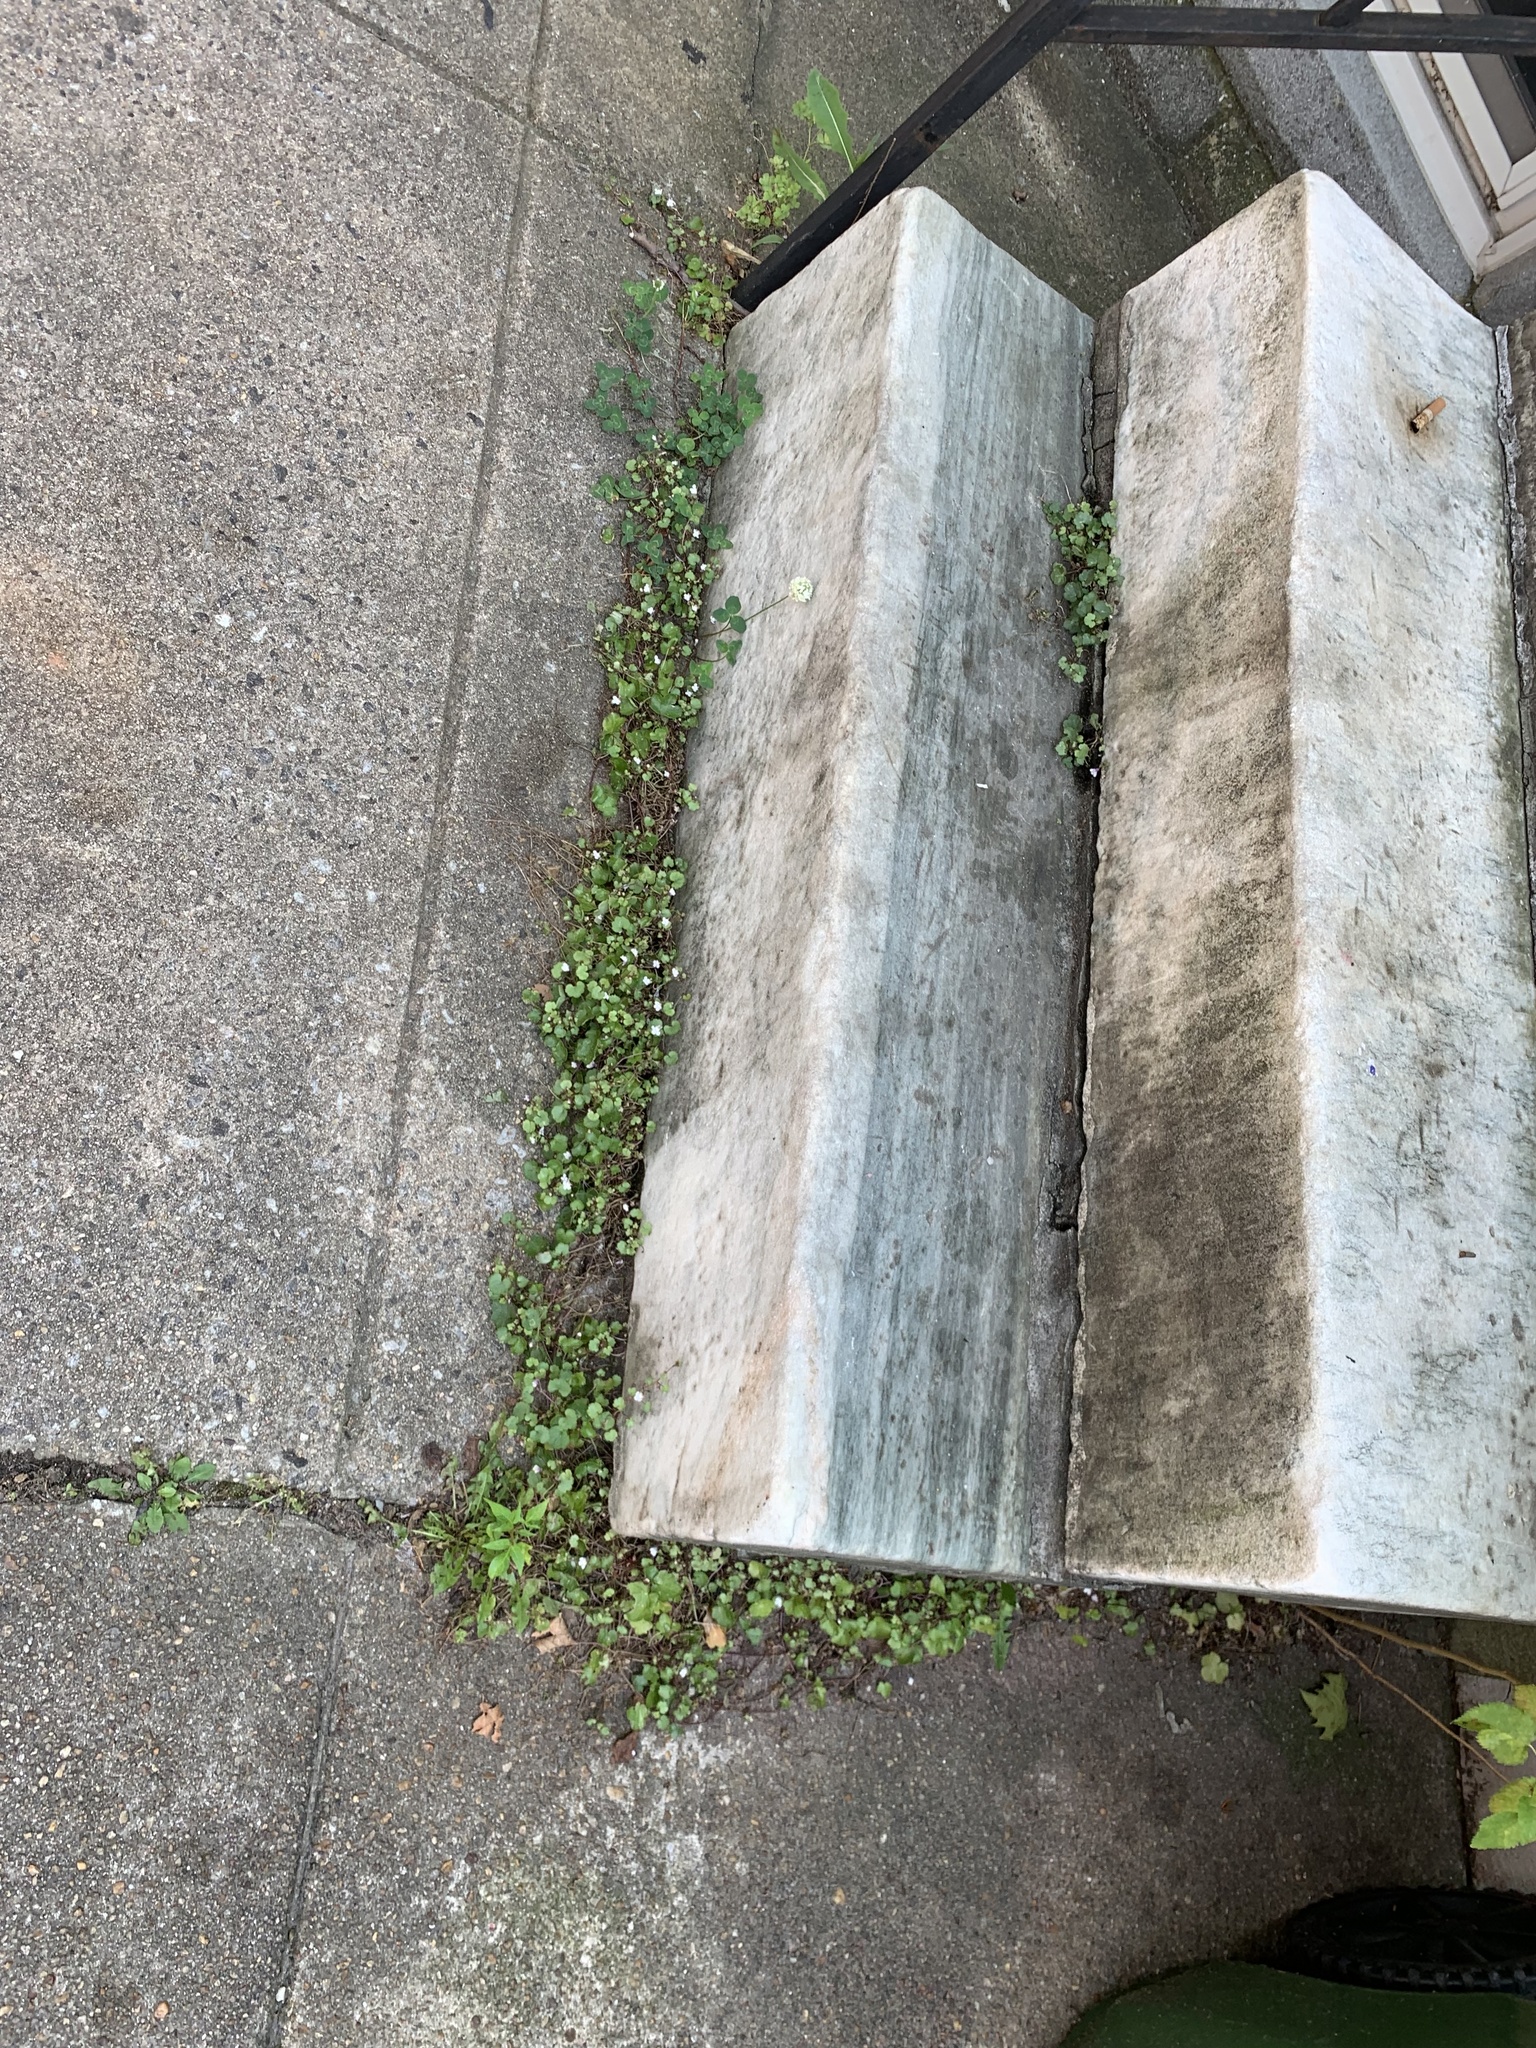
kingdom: Plantae
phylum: Tracheophyta
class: Magnoliopsida
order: Lamiales
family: Plantaginaceae
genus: Cymbalaria
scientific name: Cymbalaria muralis
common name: Ivy-leaved toadflax
